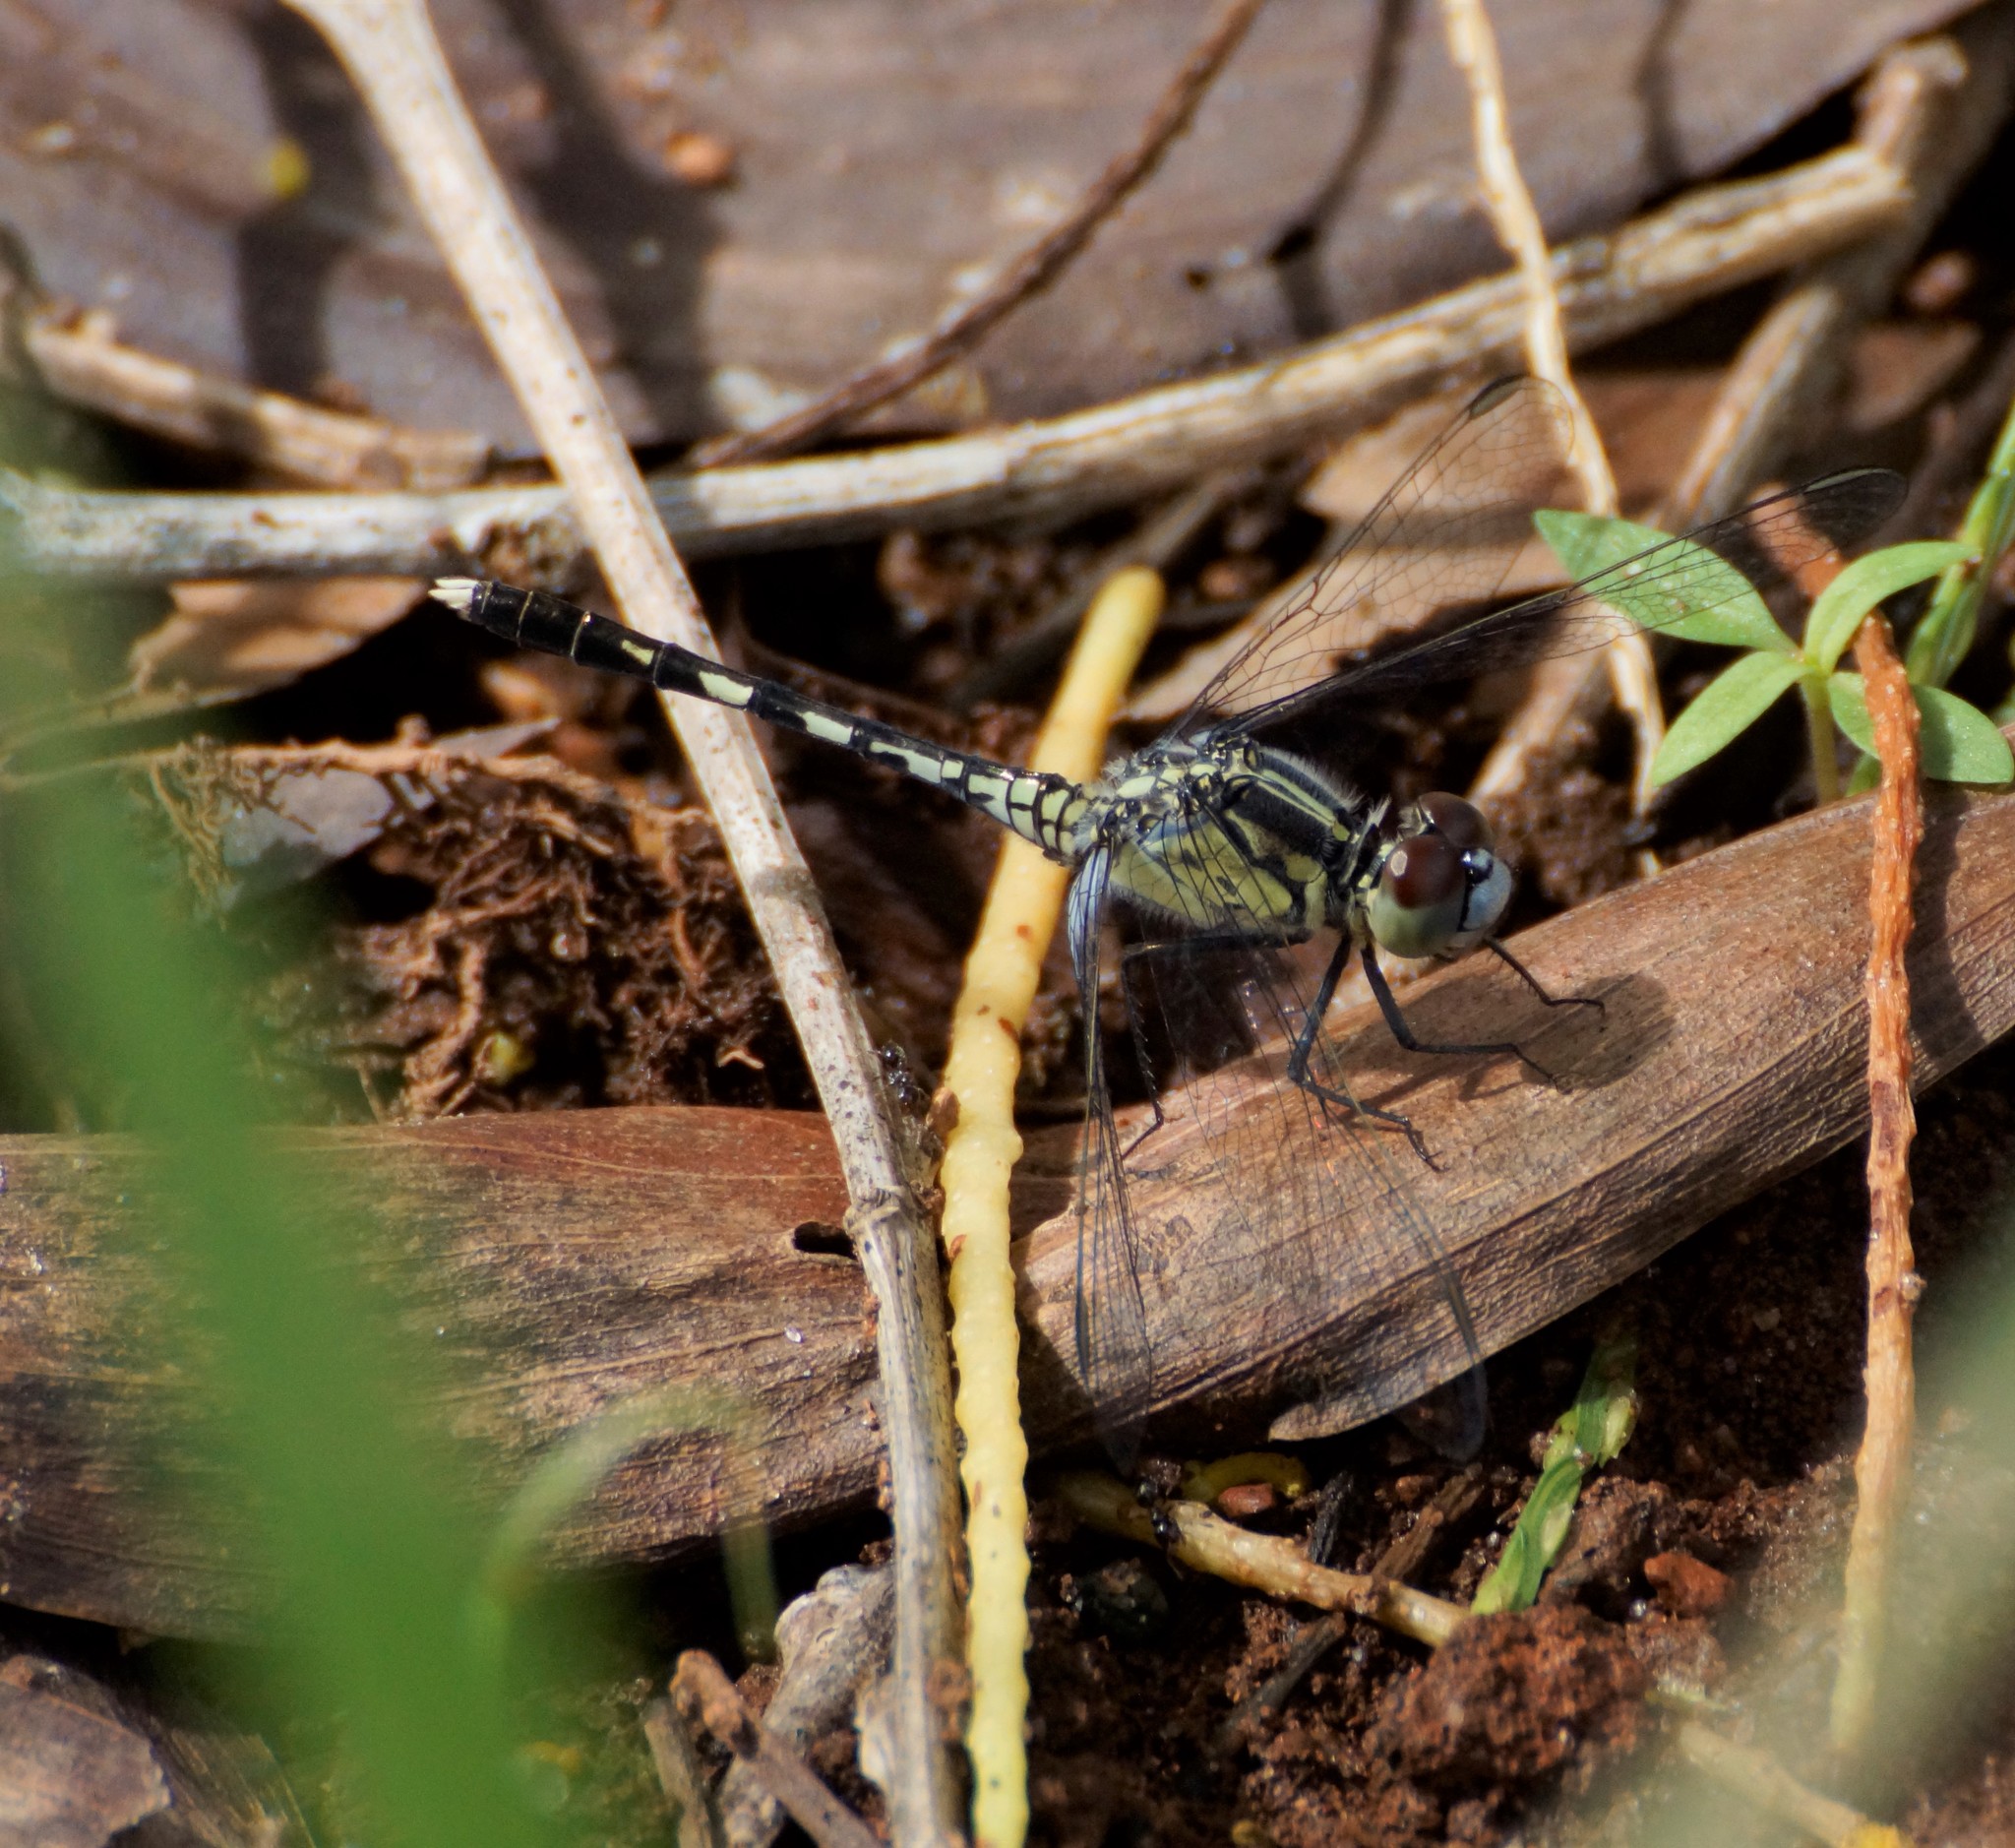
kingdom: Animalia
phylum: Arthropoda
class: Insecta
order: Odonata
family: Libellulidae
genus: Diplacodes
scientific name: Diplacodes trivialis
